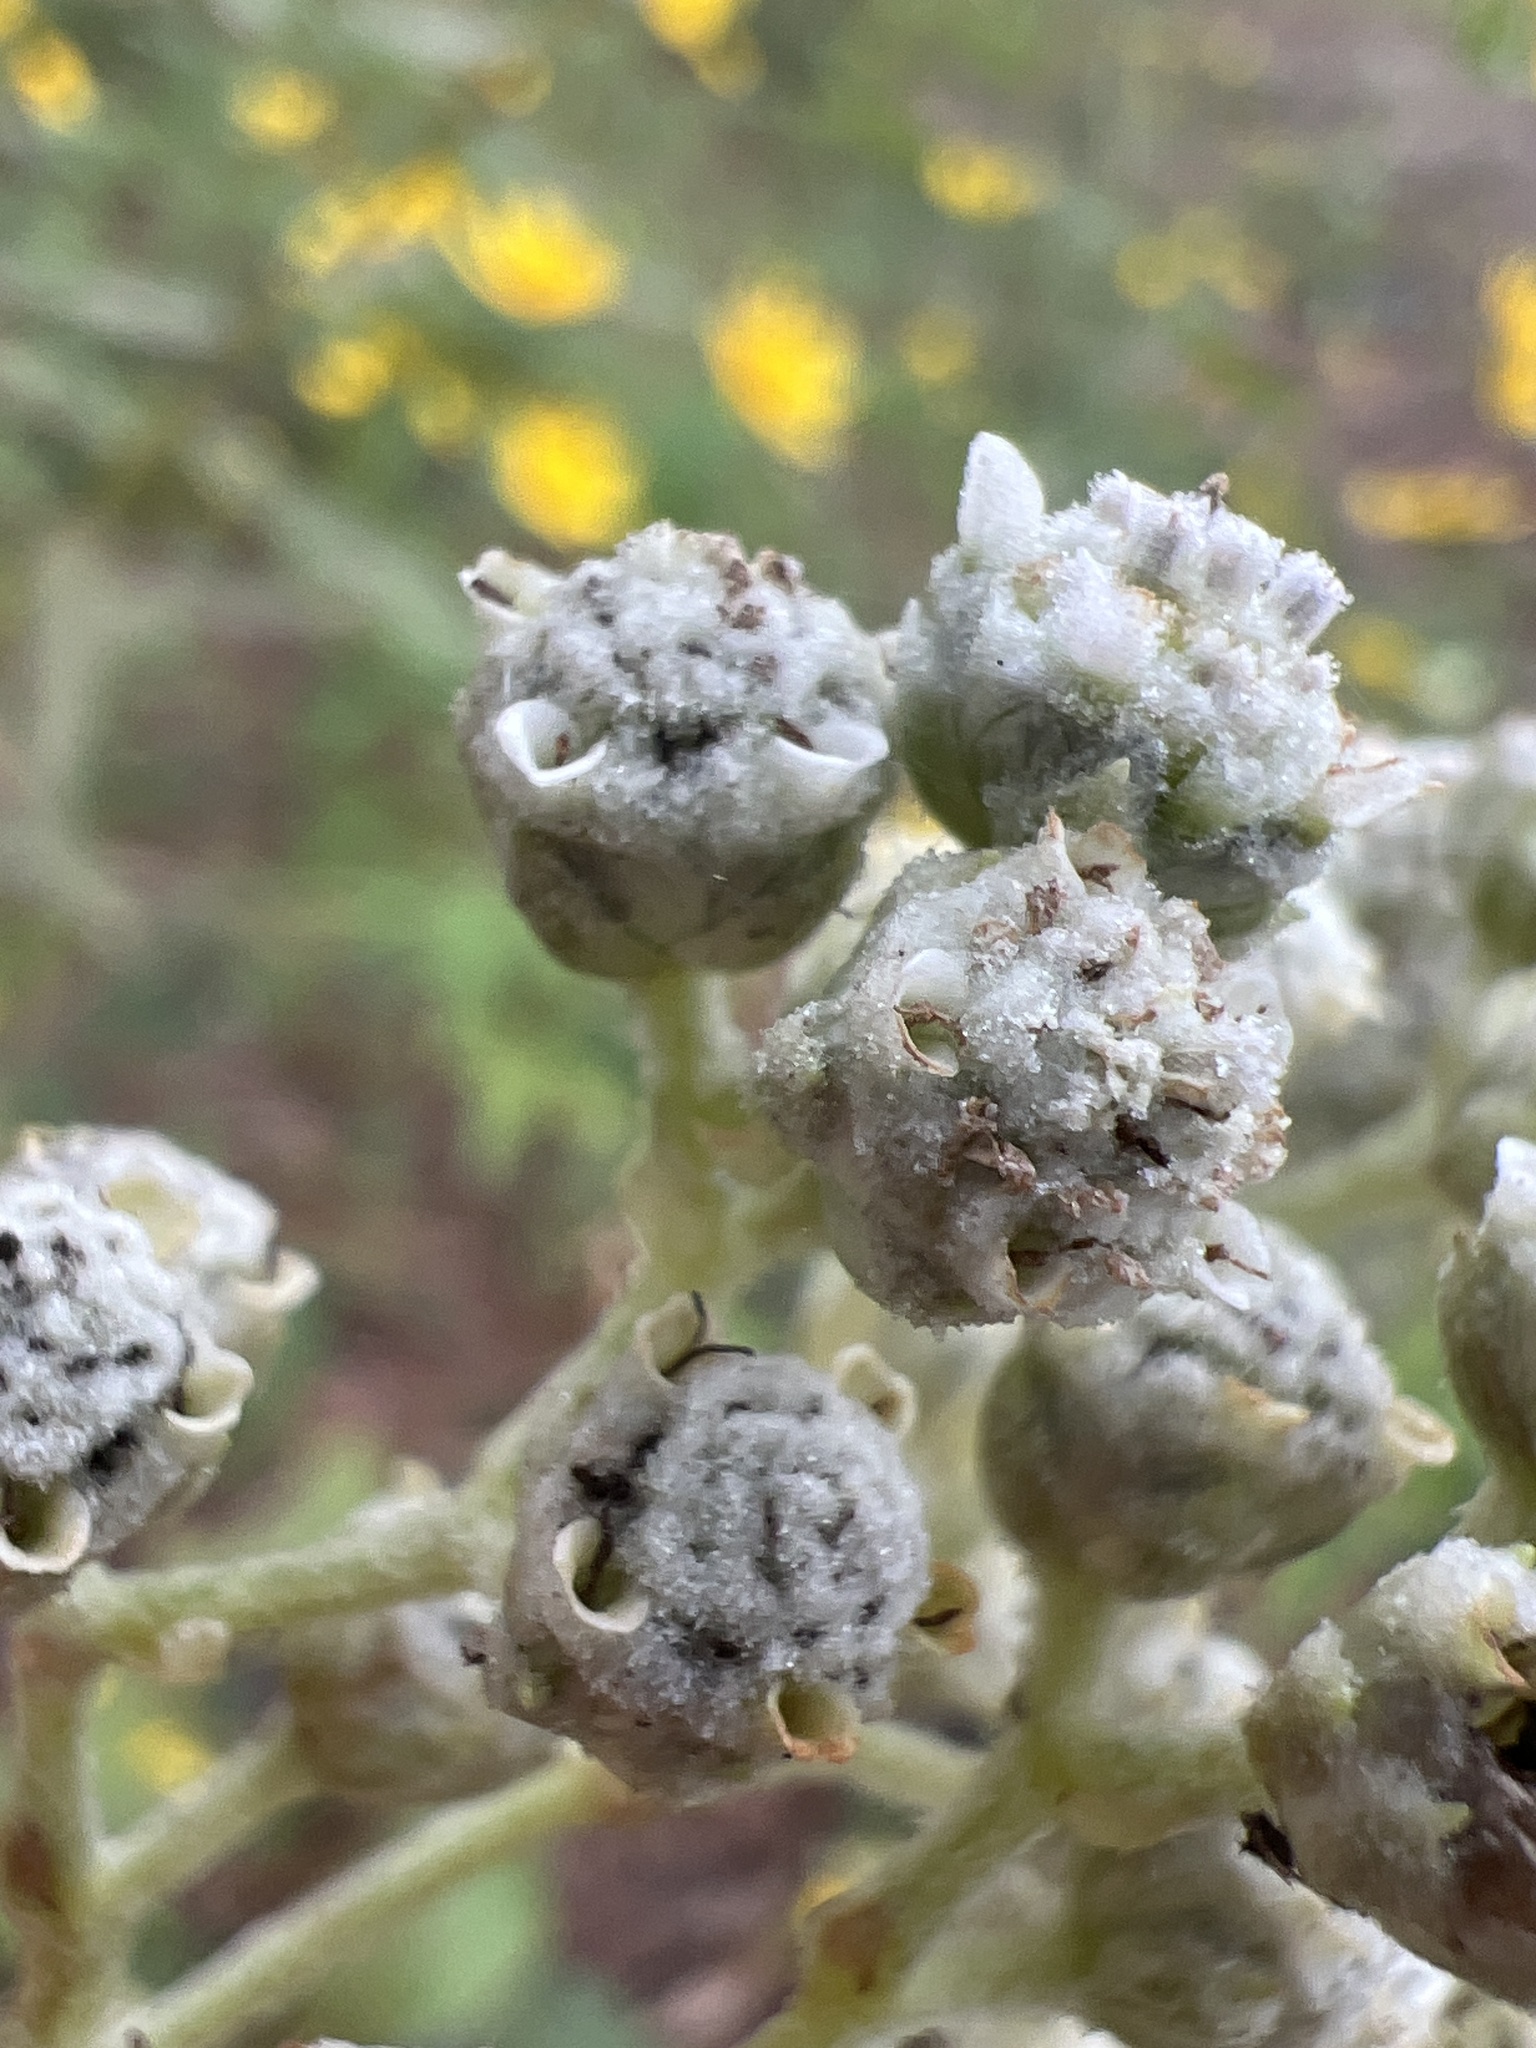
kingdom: Plantae
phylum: Tracheophyta
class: Magnoliopsida
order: Asterales
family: Asteraceae
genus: Parthenium
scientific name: Parthenium integrifolium
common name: American feverfew
